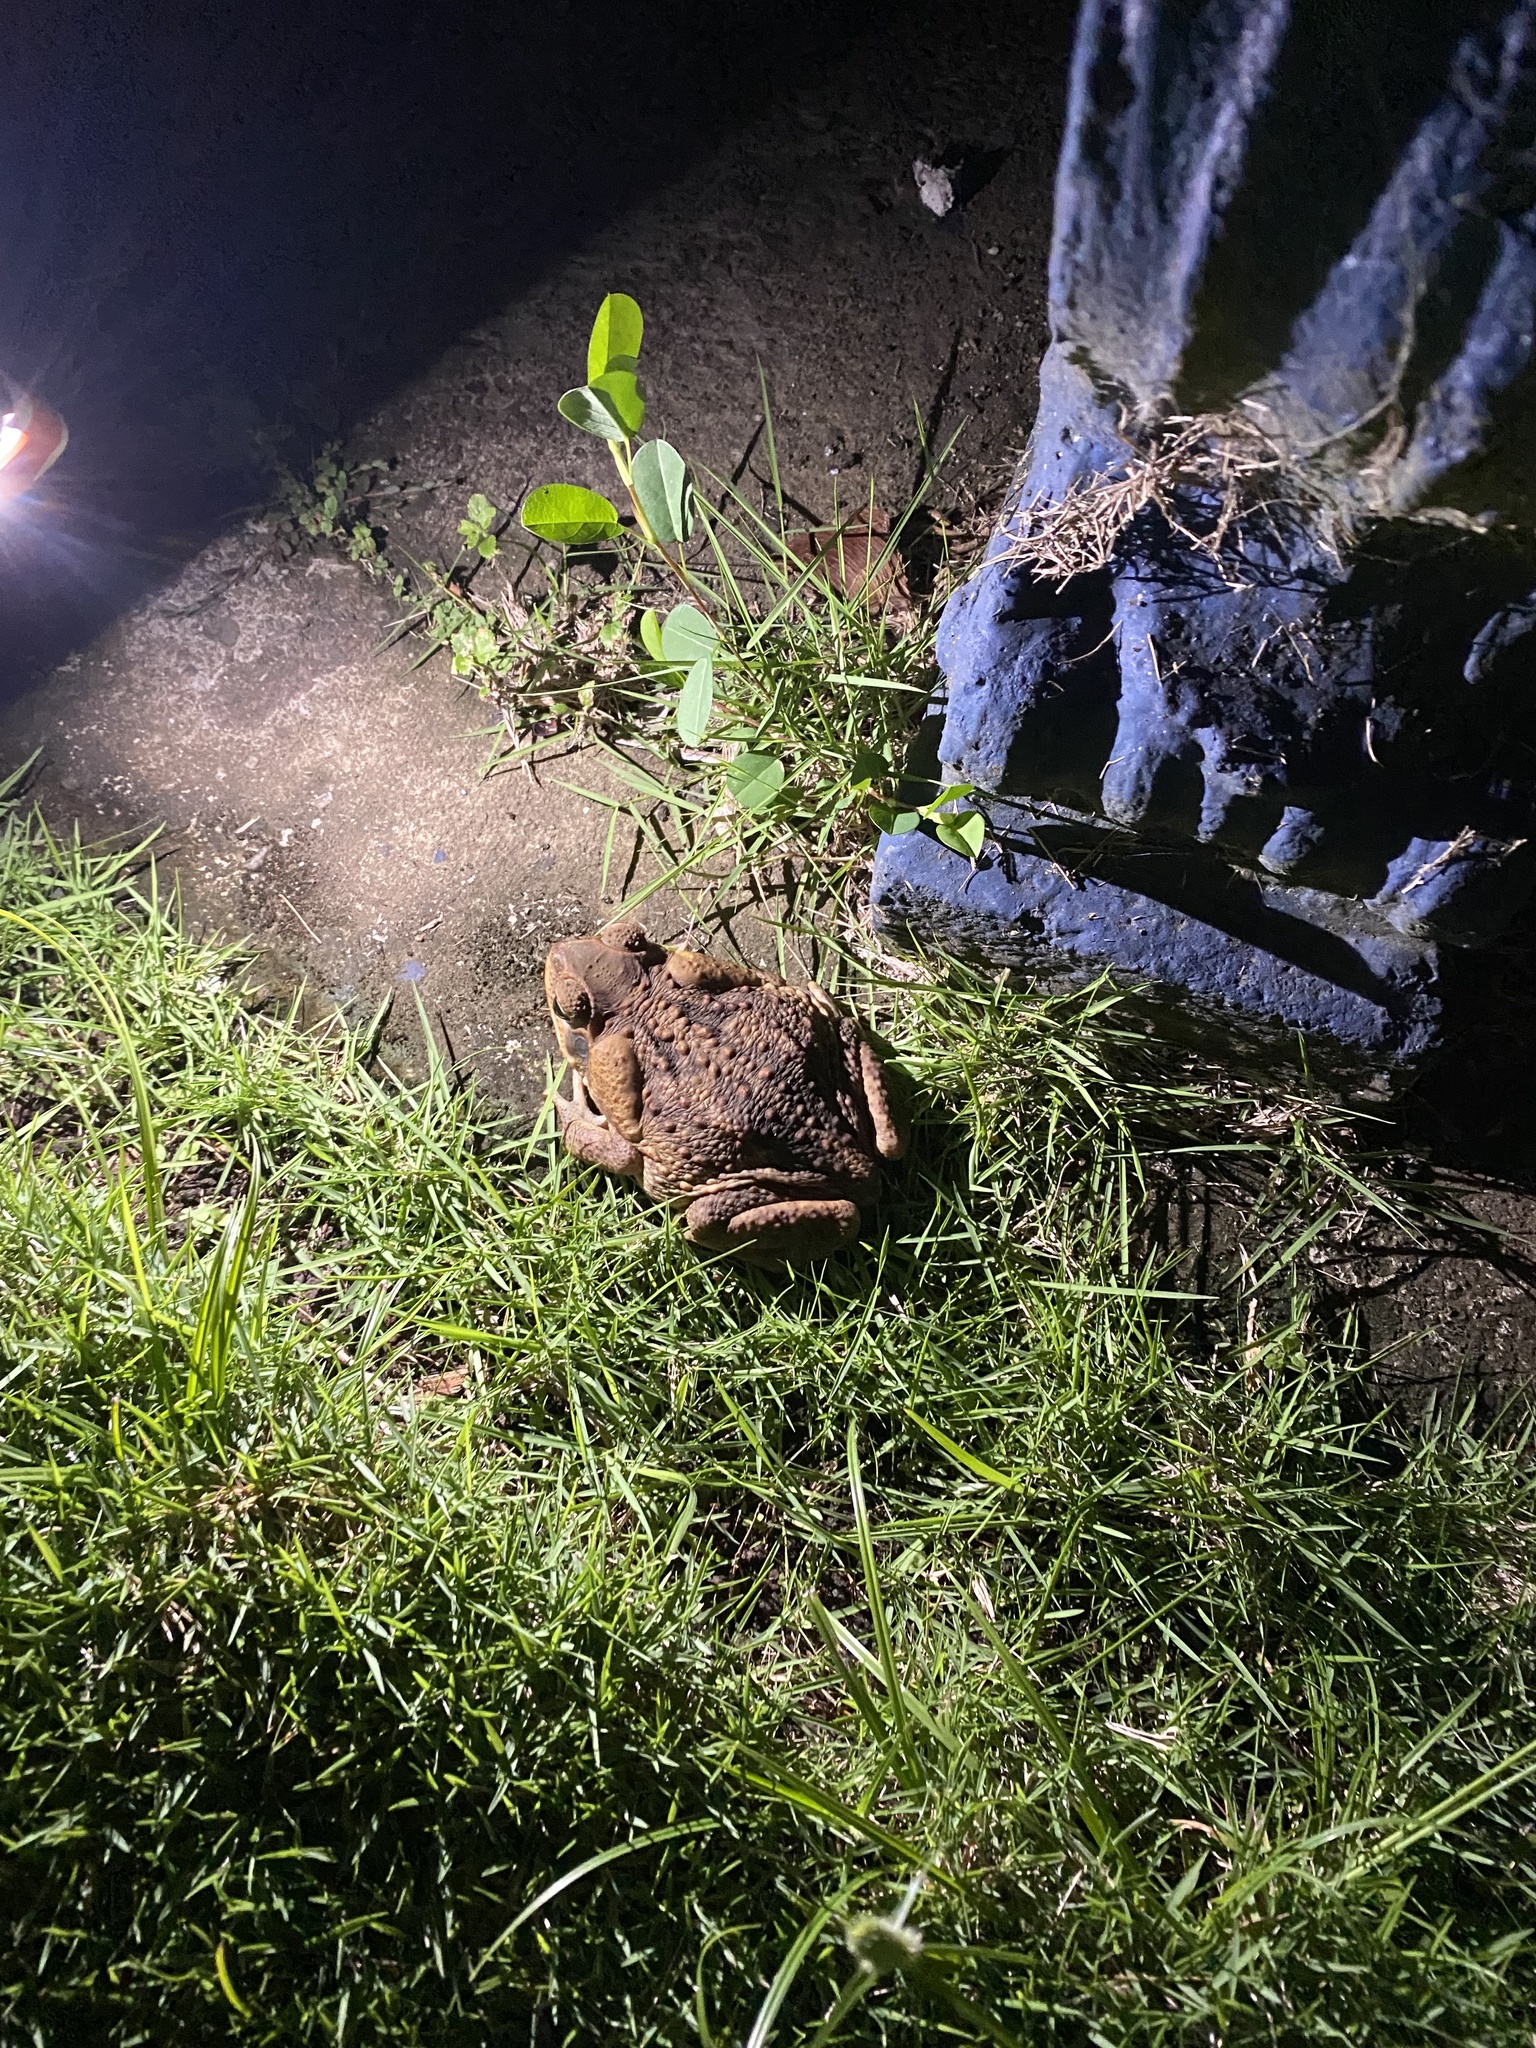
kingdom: Animalia
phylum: Chordata
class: Amphibia
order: Anura
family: Bufonidae
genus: Rhinella
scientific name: Rhinella horribilis
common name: Mesoamerican cane toad
